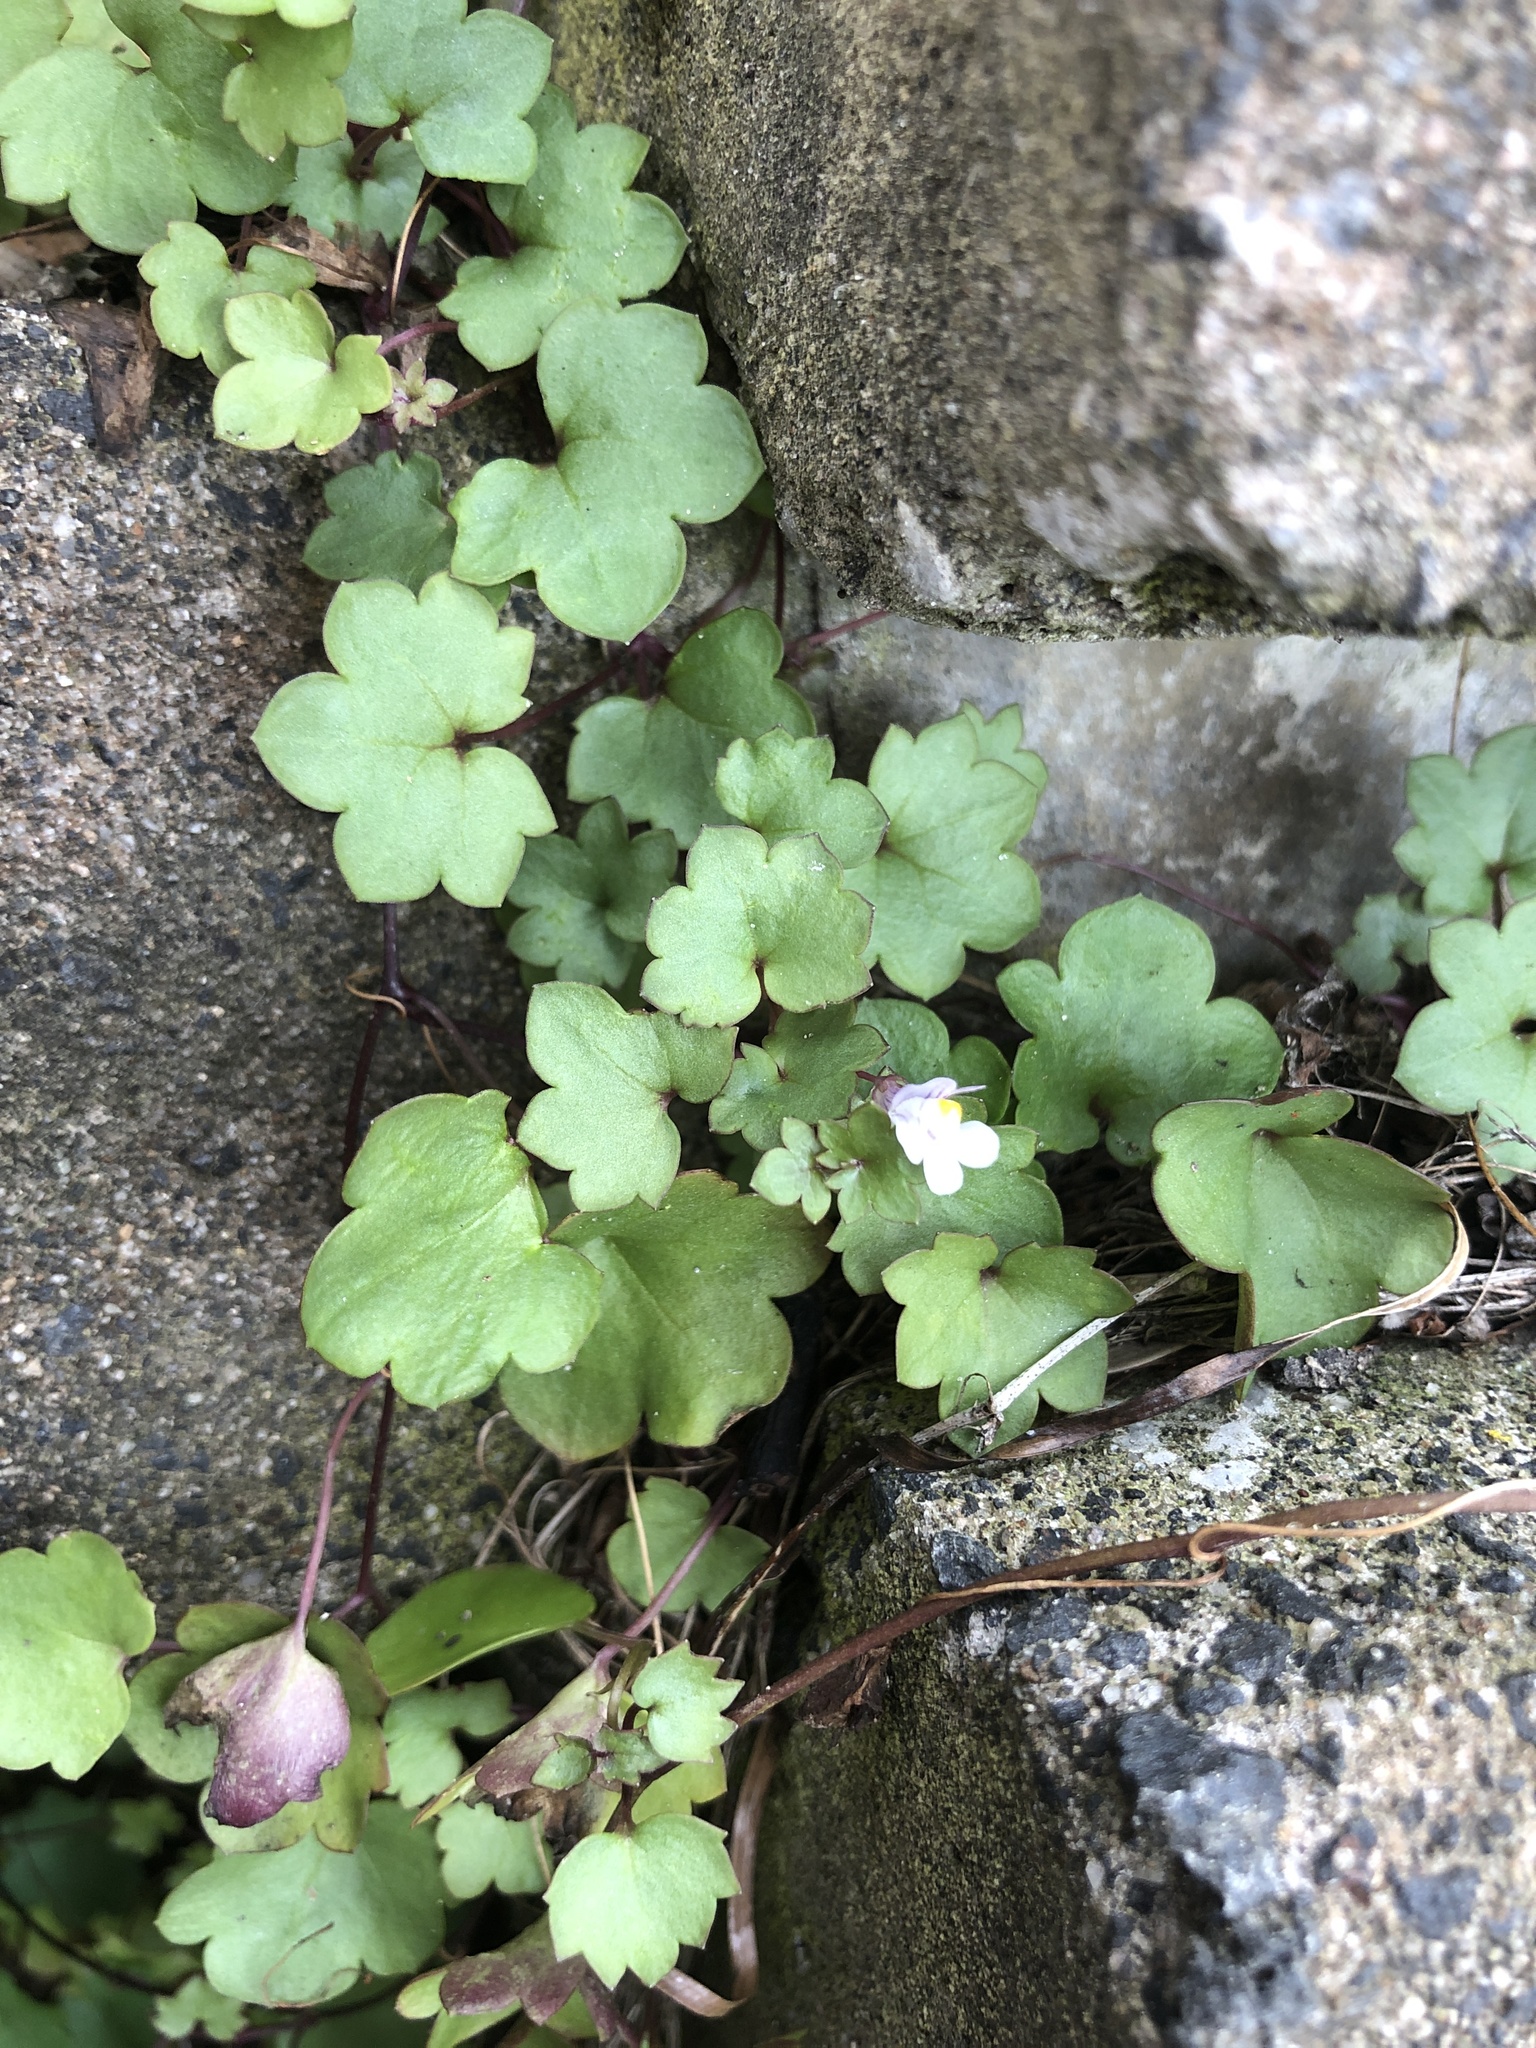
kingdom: Plantae
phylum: Tracheophyta
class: Magnoliopsida
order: Lamiales
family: Plantaginaceae
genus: Cymbalaria
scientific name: Cymbalaria muralis
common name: Ivy-leaved toadflax
